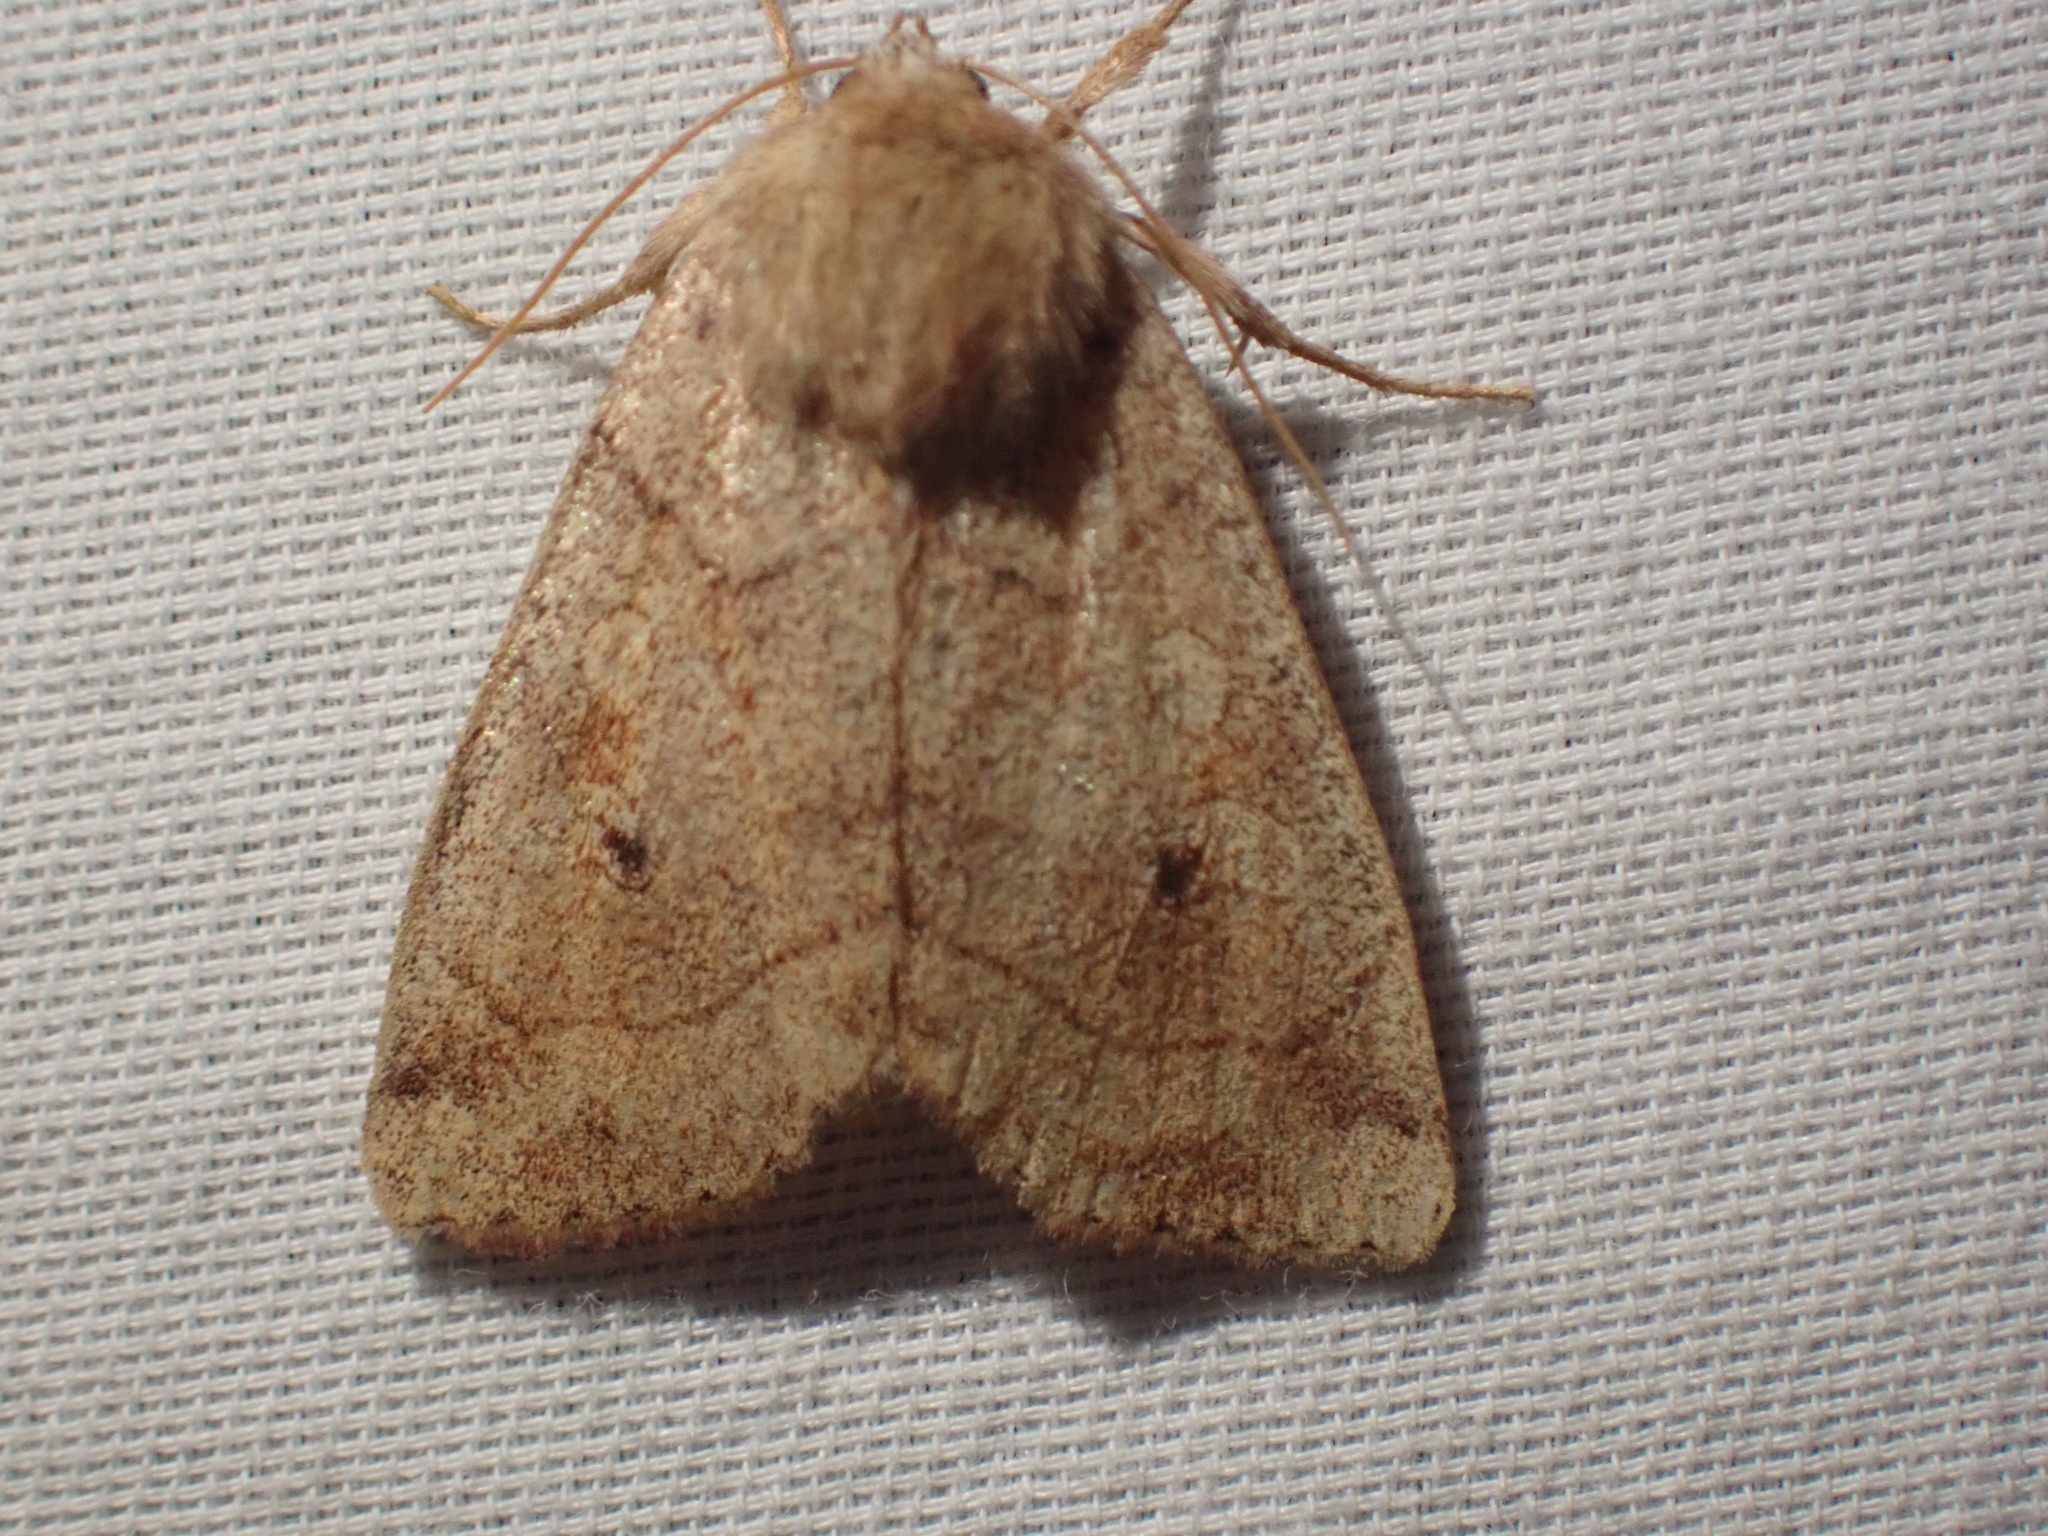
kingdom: Animalia
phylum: Arthropoda
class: Insecta
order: Lepidoptera
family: Noctuidae
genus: Enargia
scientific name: Enargia infumata
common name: Smoked sallow
